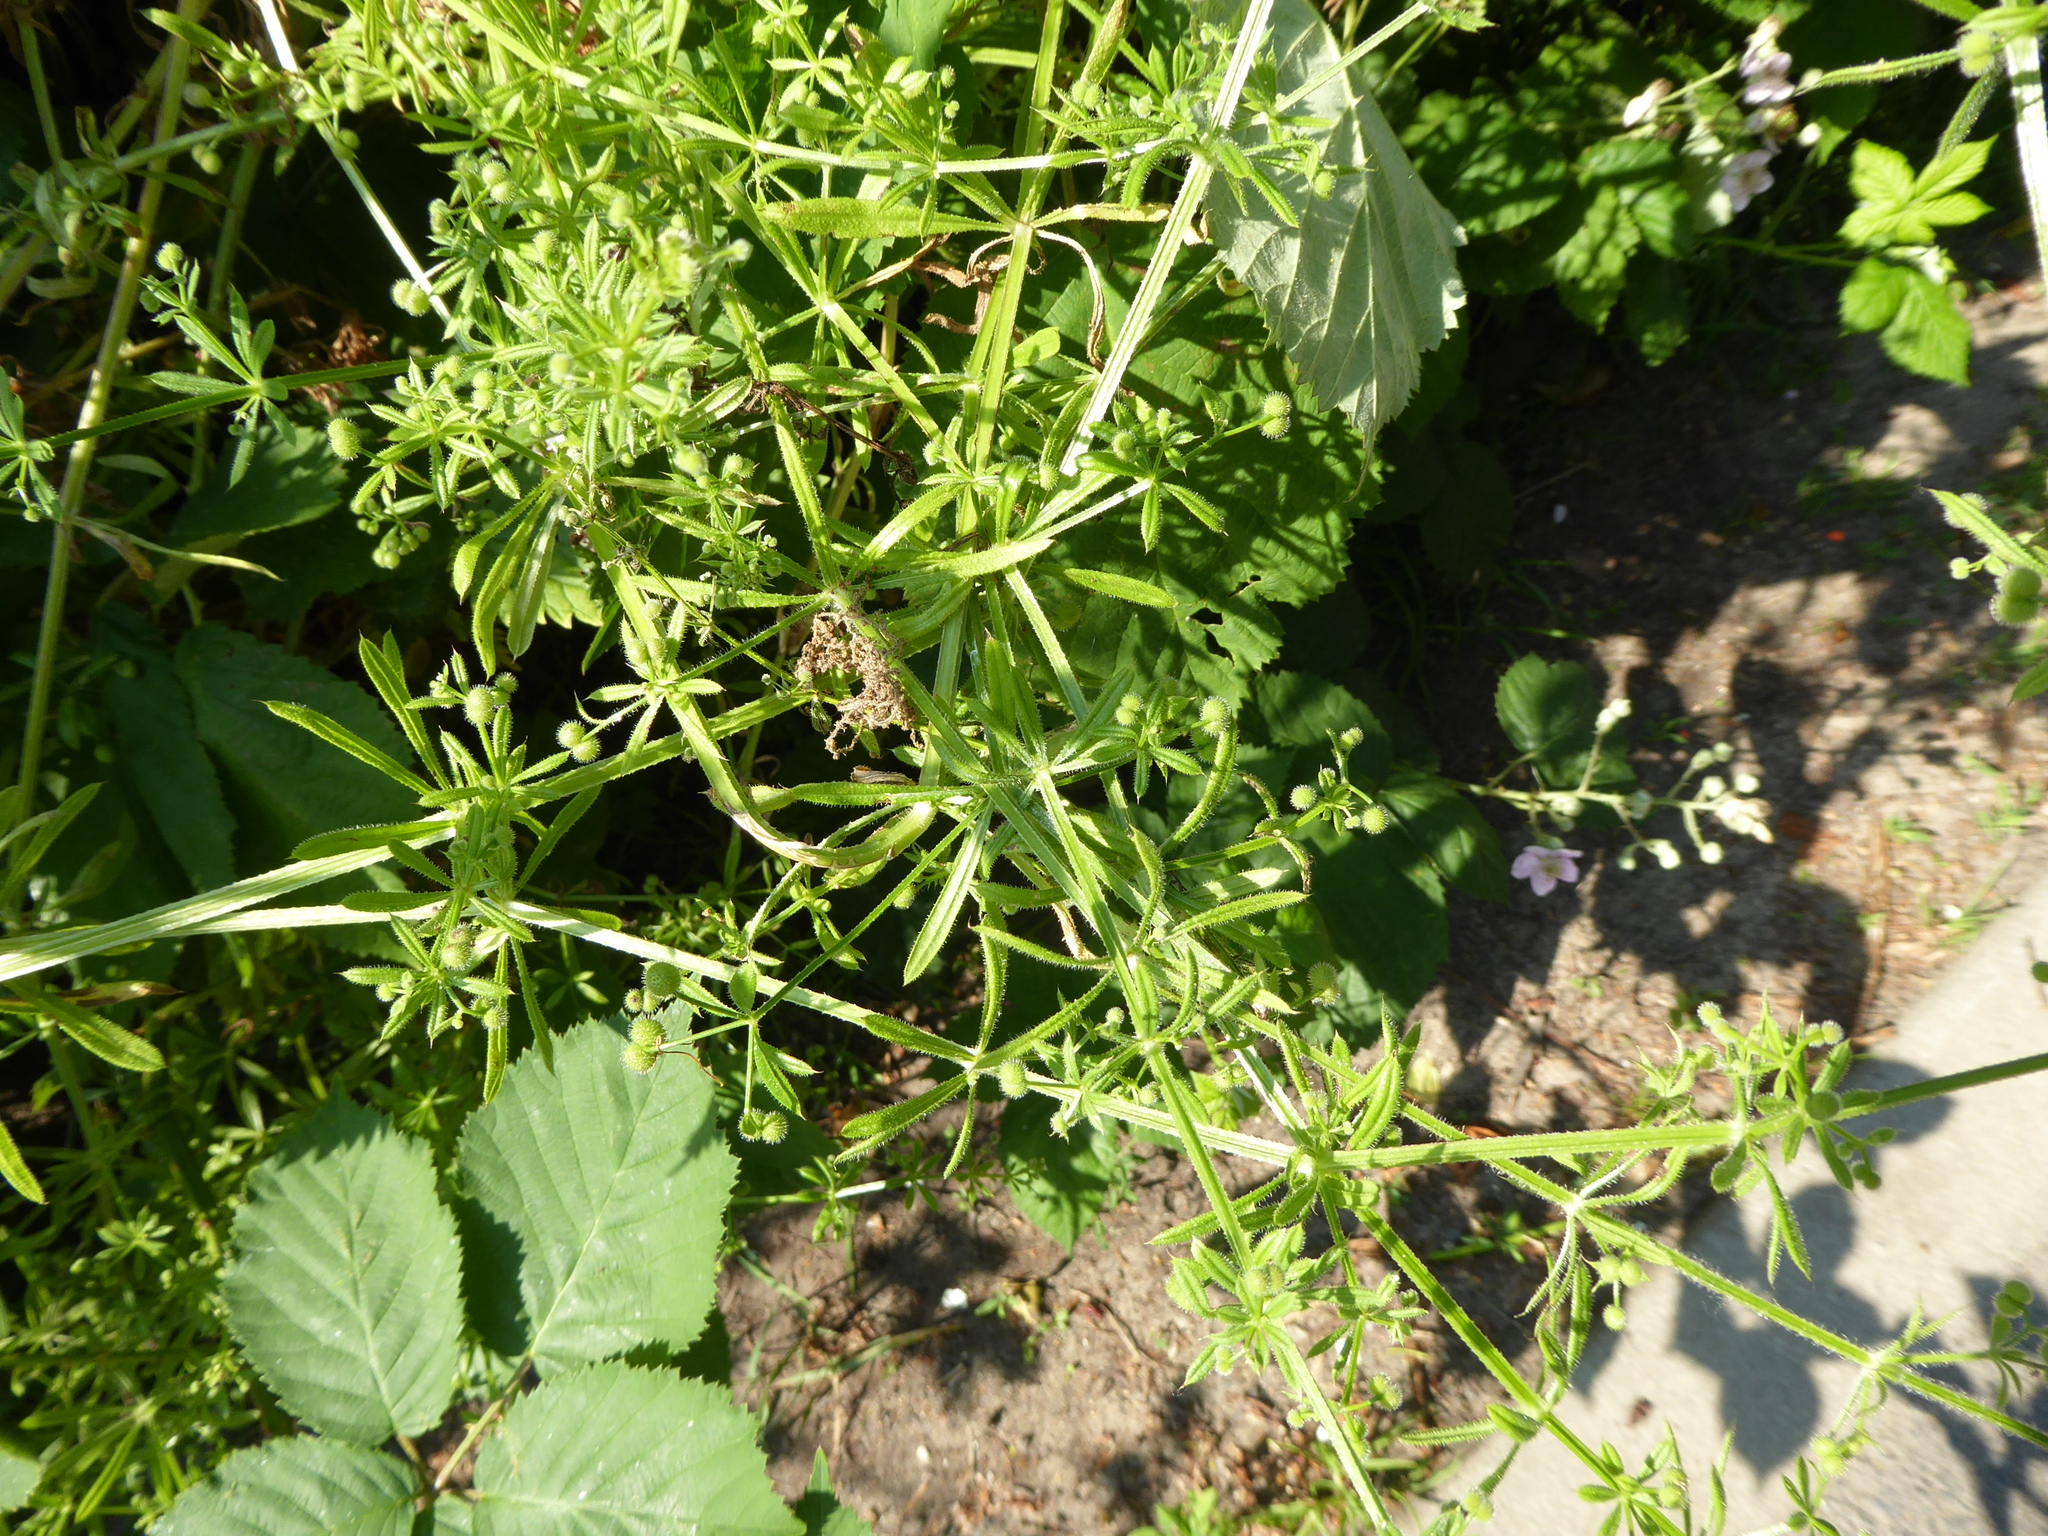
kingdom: Plantae
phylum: Tracheophyta
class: Magnoliopsida
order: Gentianales
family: Rubiaceae
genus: Galium
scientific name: Galium aparine
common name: Cleavers
